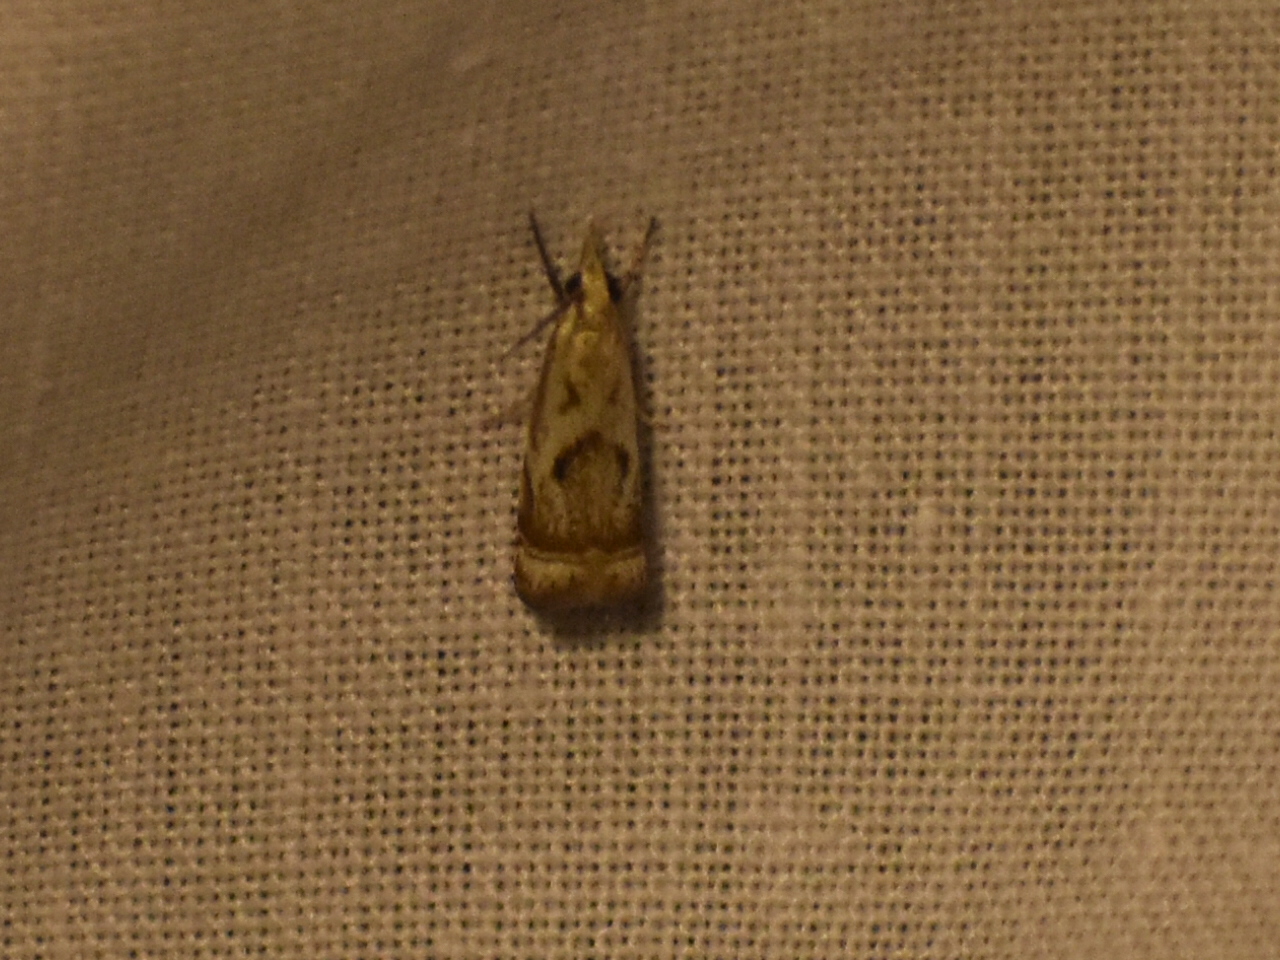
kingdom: Animalia
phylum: Arthropoda
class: Insecta
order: Lepidoptera
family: Crambidae
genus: Microcrambus
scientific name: Microcrambus elegans
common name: Elegant grass-veneer
